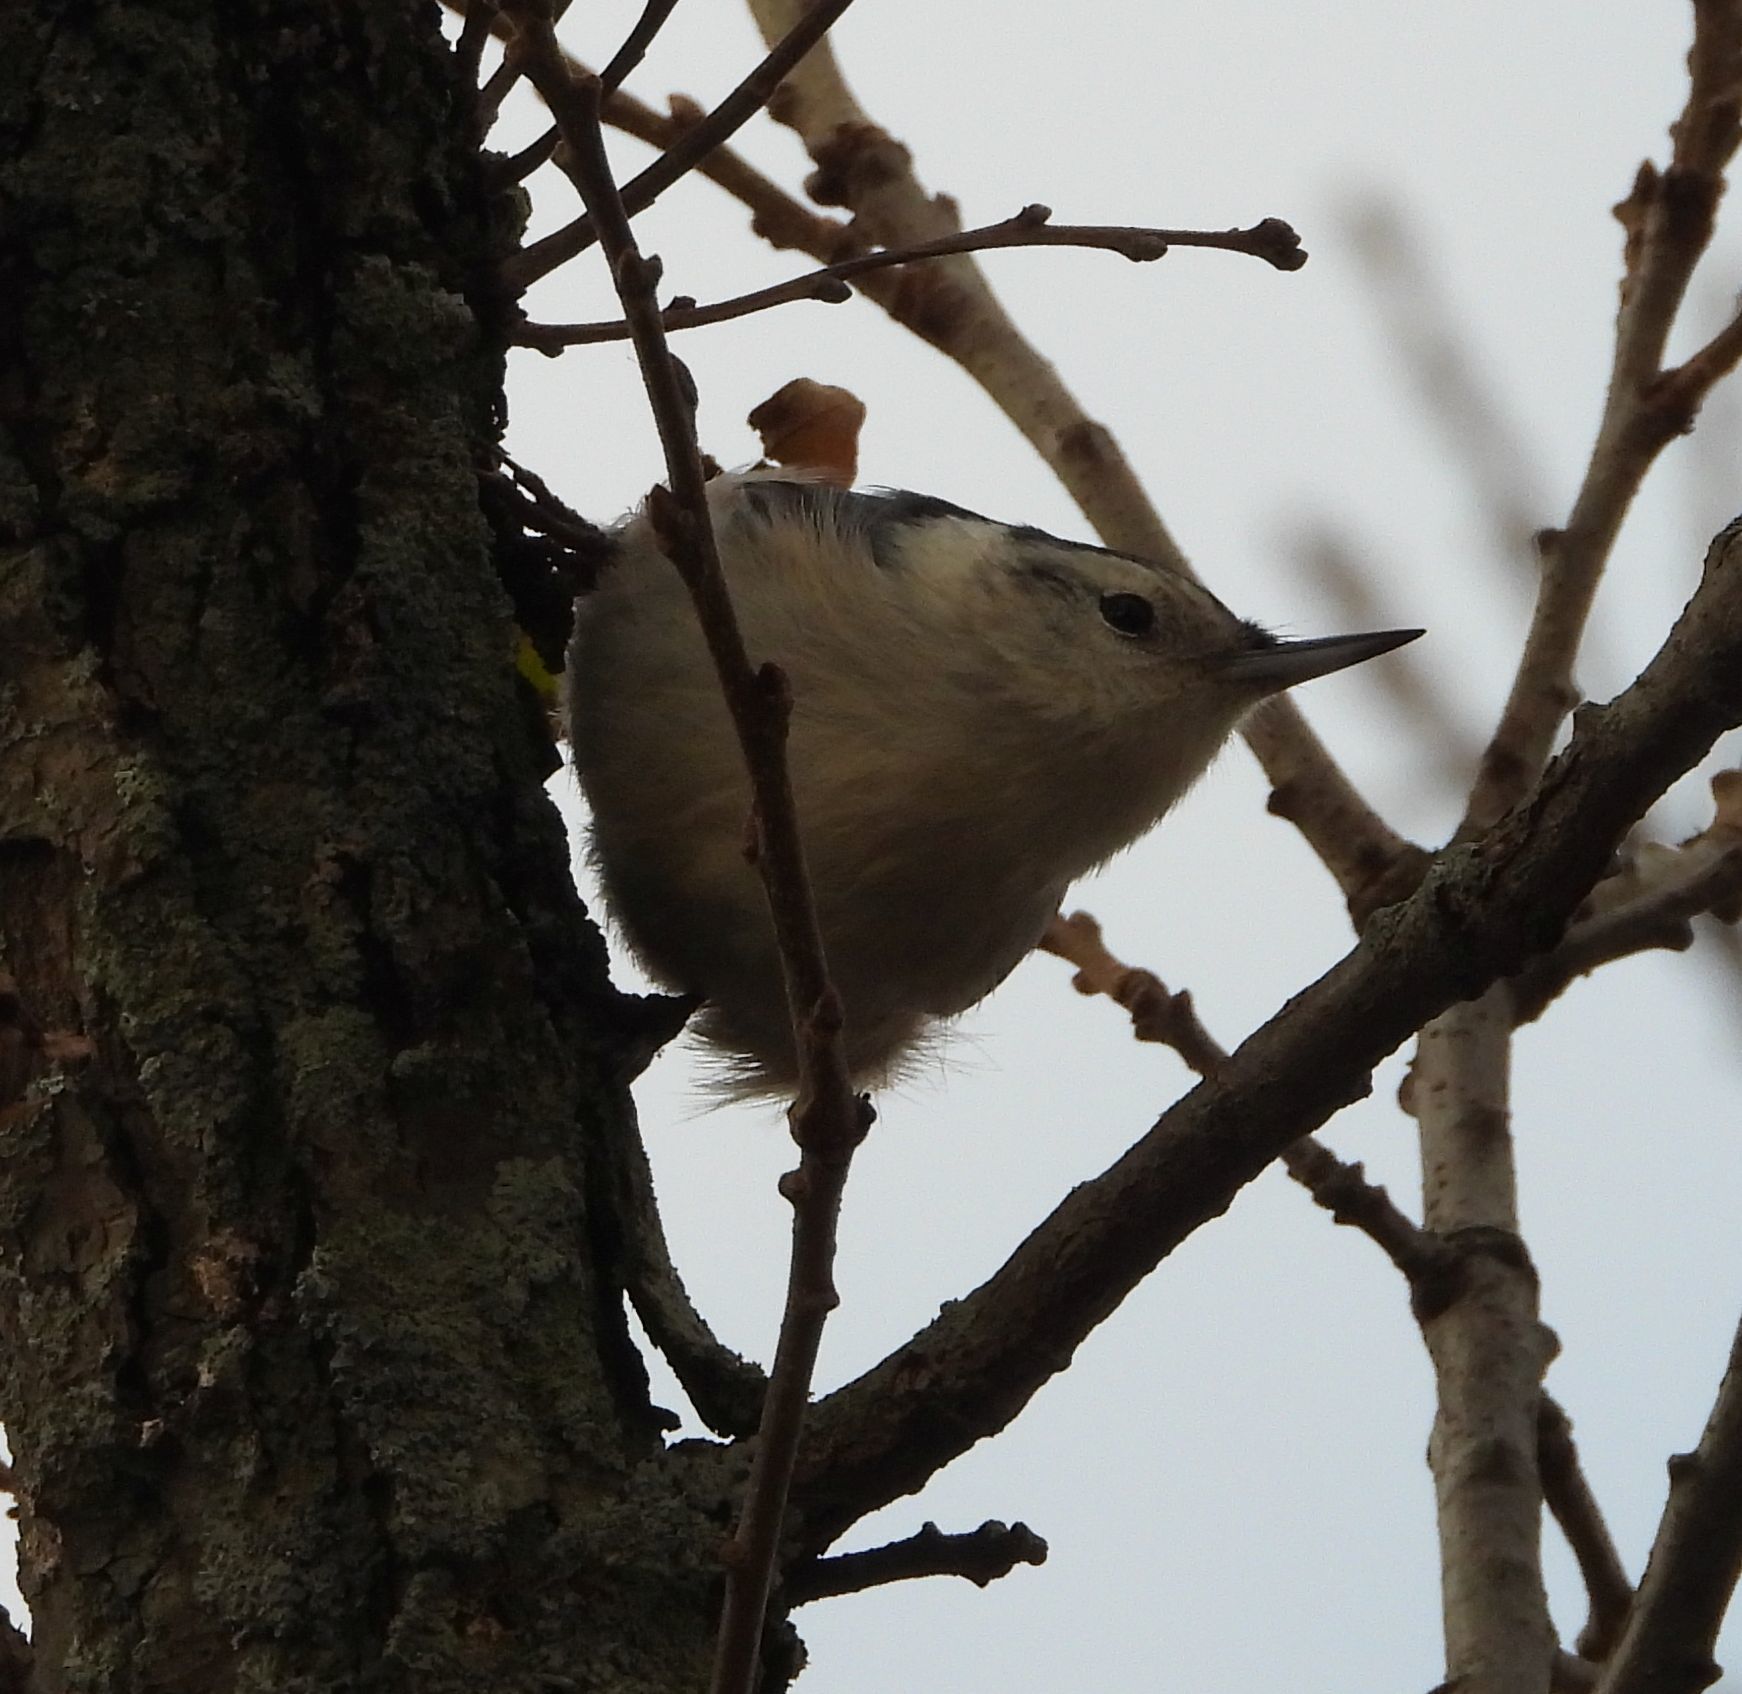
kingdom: Animalia
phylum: Chordata
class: Aves
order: Passeriformes
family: Sittidae
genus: Sitta
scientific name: Sitta carolinensis
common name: White-breasted nuthatch
